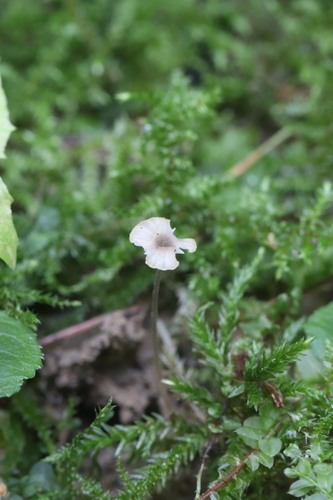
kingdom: Fungi
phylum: Basidiomycota
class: Agaricomycetes
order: Hymenochaetales
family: Rickenellaceae
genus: Rickenella
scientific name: Rickenella swartzii
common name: Collared mosscap
